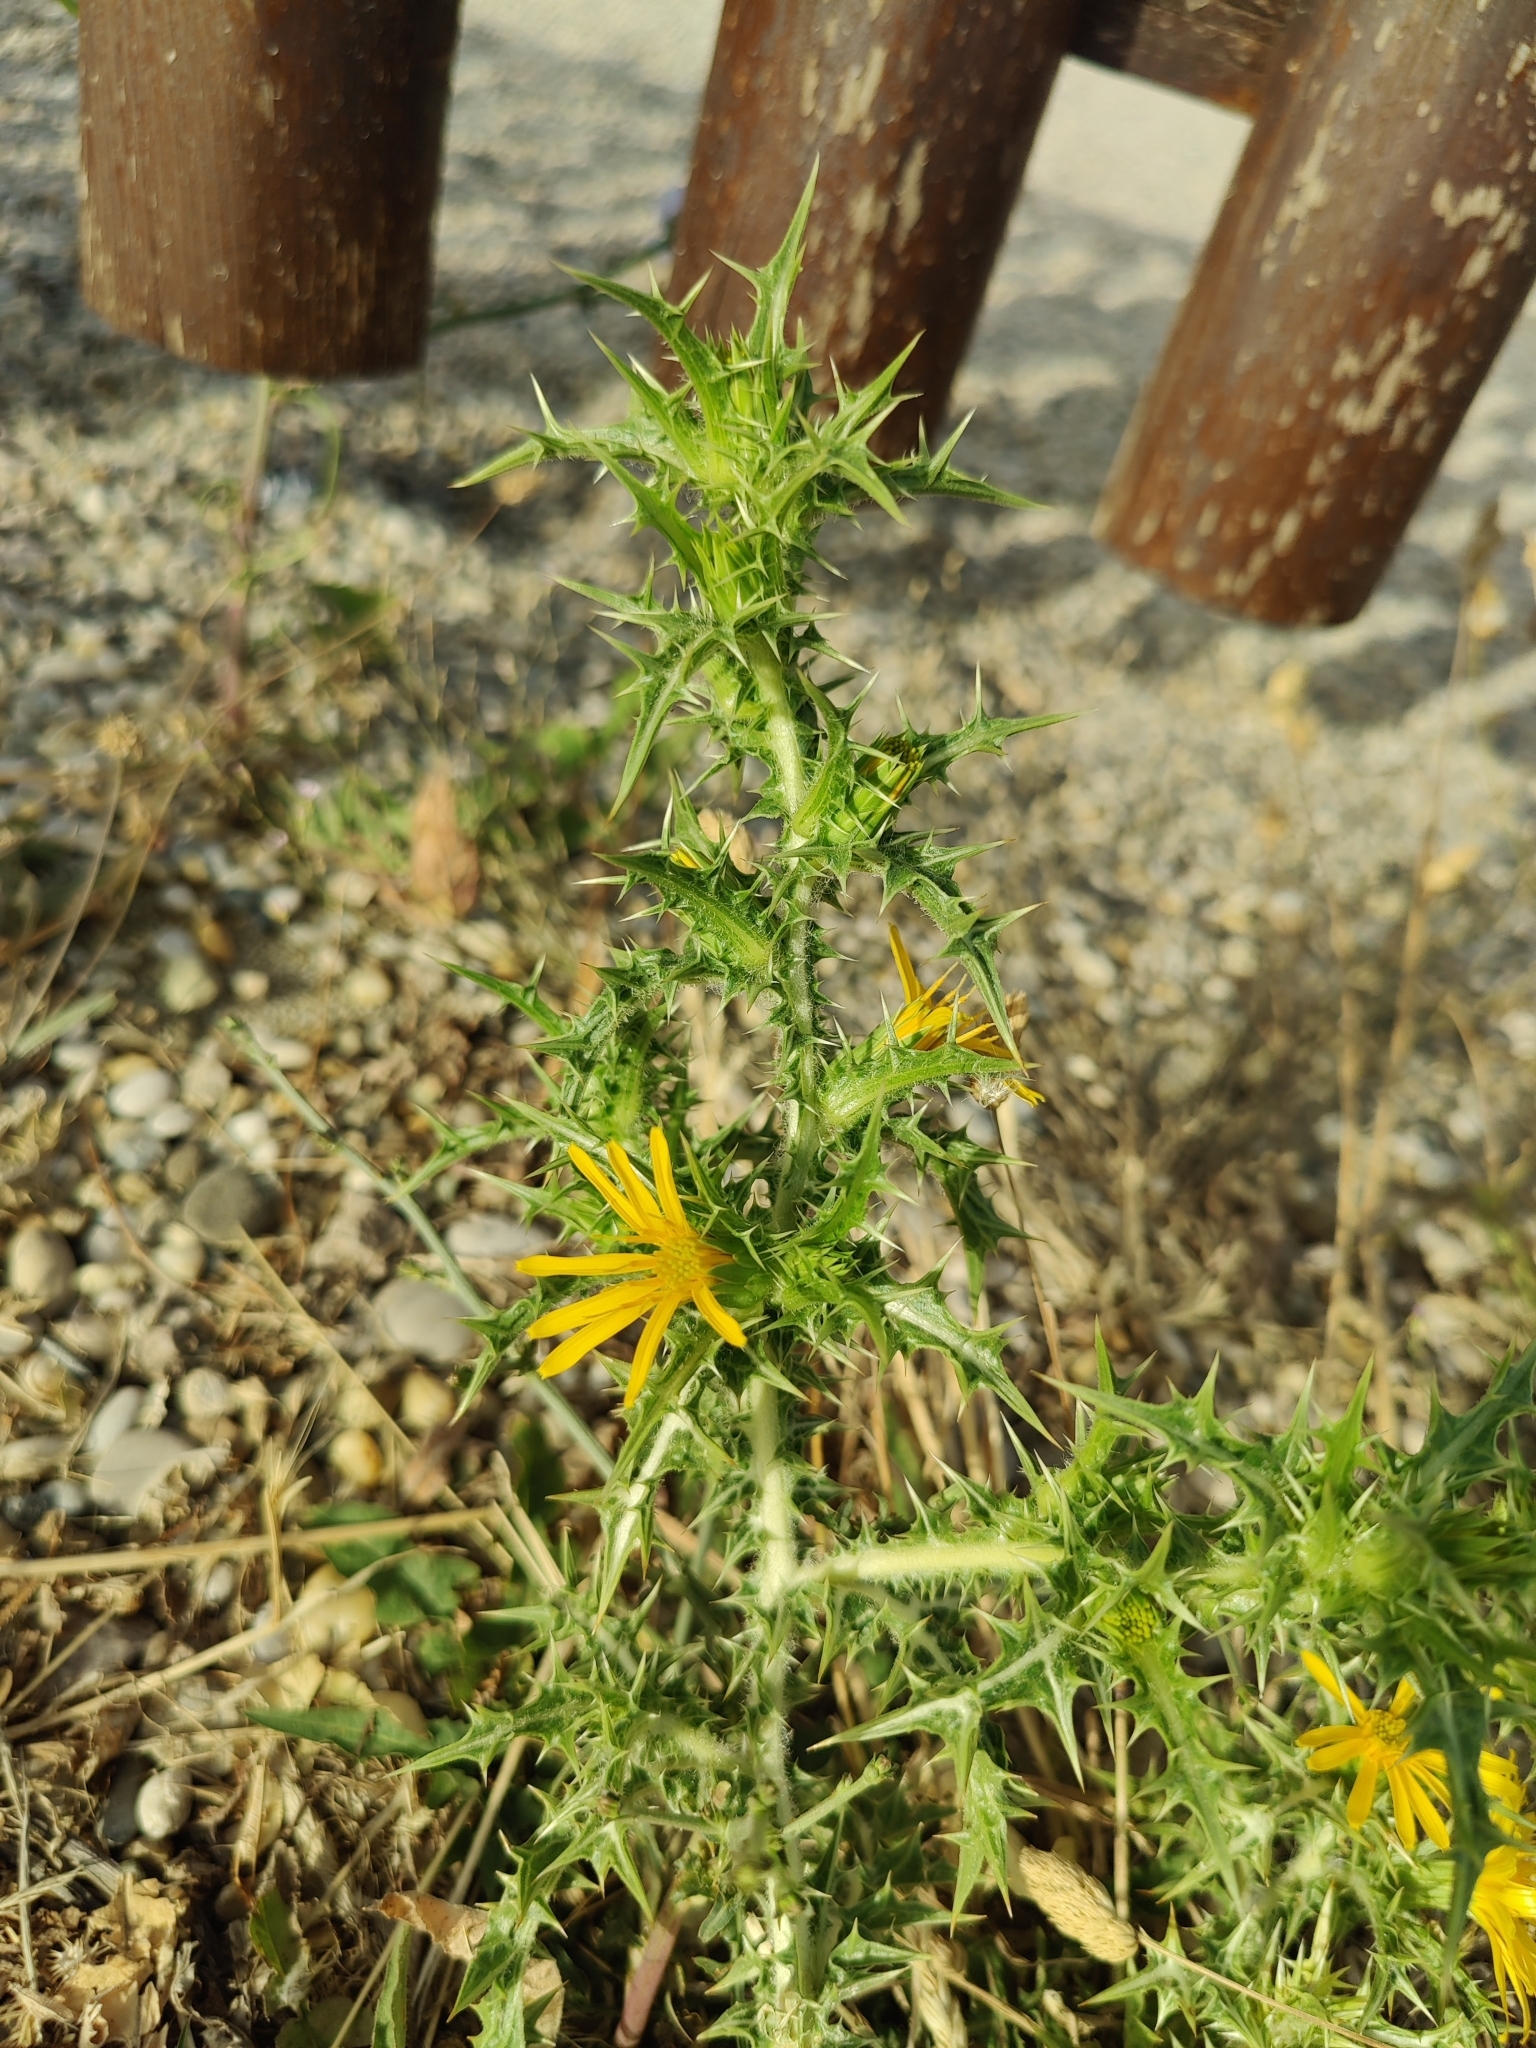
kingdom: Plantae
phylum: Tracheophyta
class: Magnoliopsida
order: Asterales
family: Asteraceae
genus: Scolymus
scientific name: Scolymus hispanicus
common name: Golden thistle
